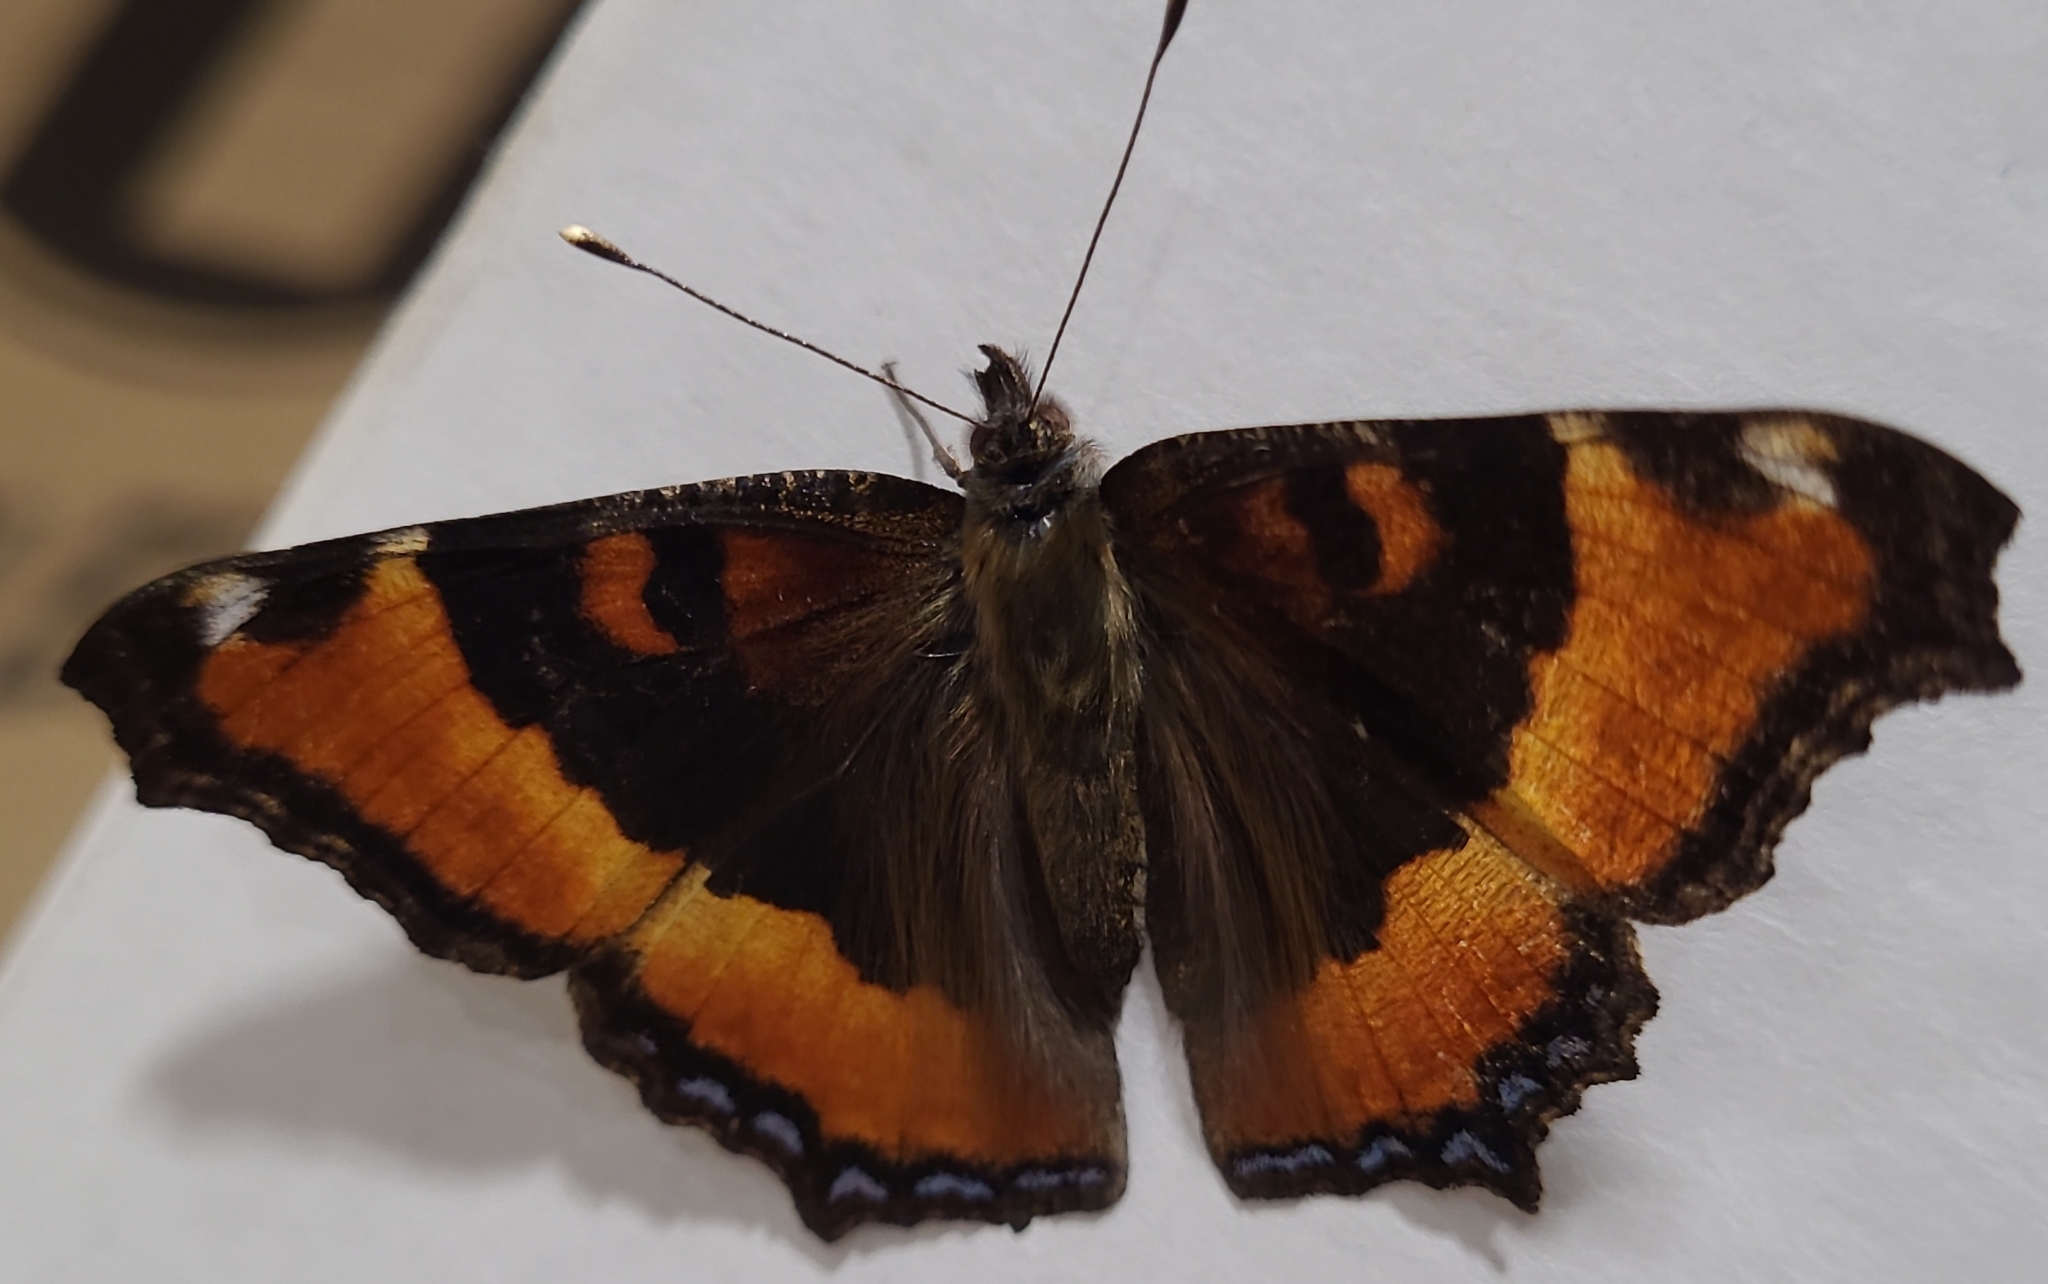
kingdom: Animalia
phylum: Arthropoda
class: Insecta
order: Lepidoptera
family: Nymphalidae
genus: Aglais
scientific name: Aglais milberti
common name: Milbert's tortoiseshell
